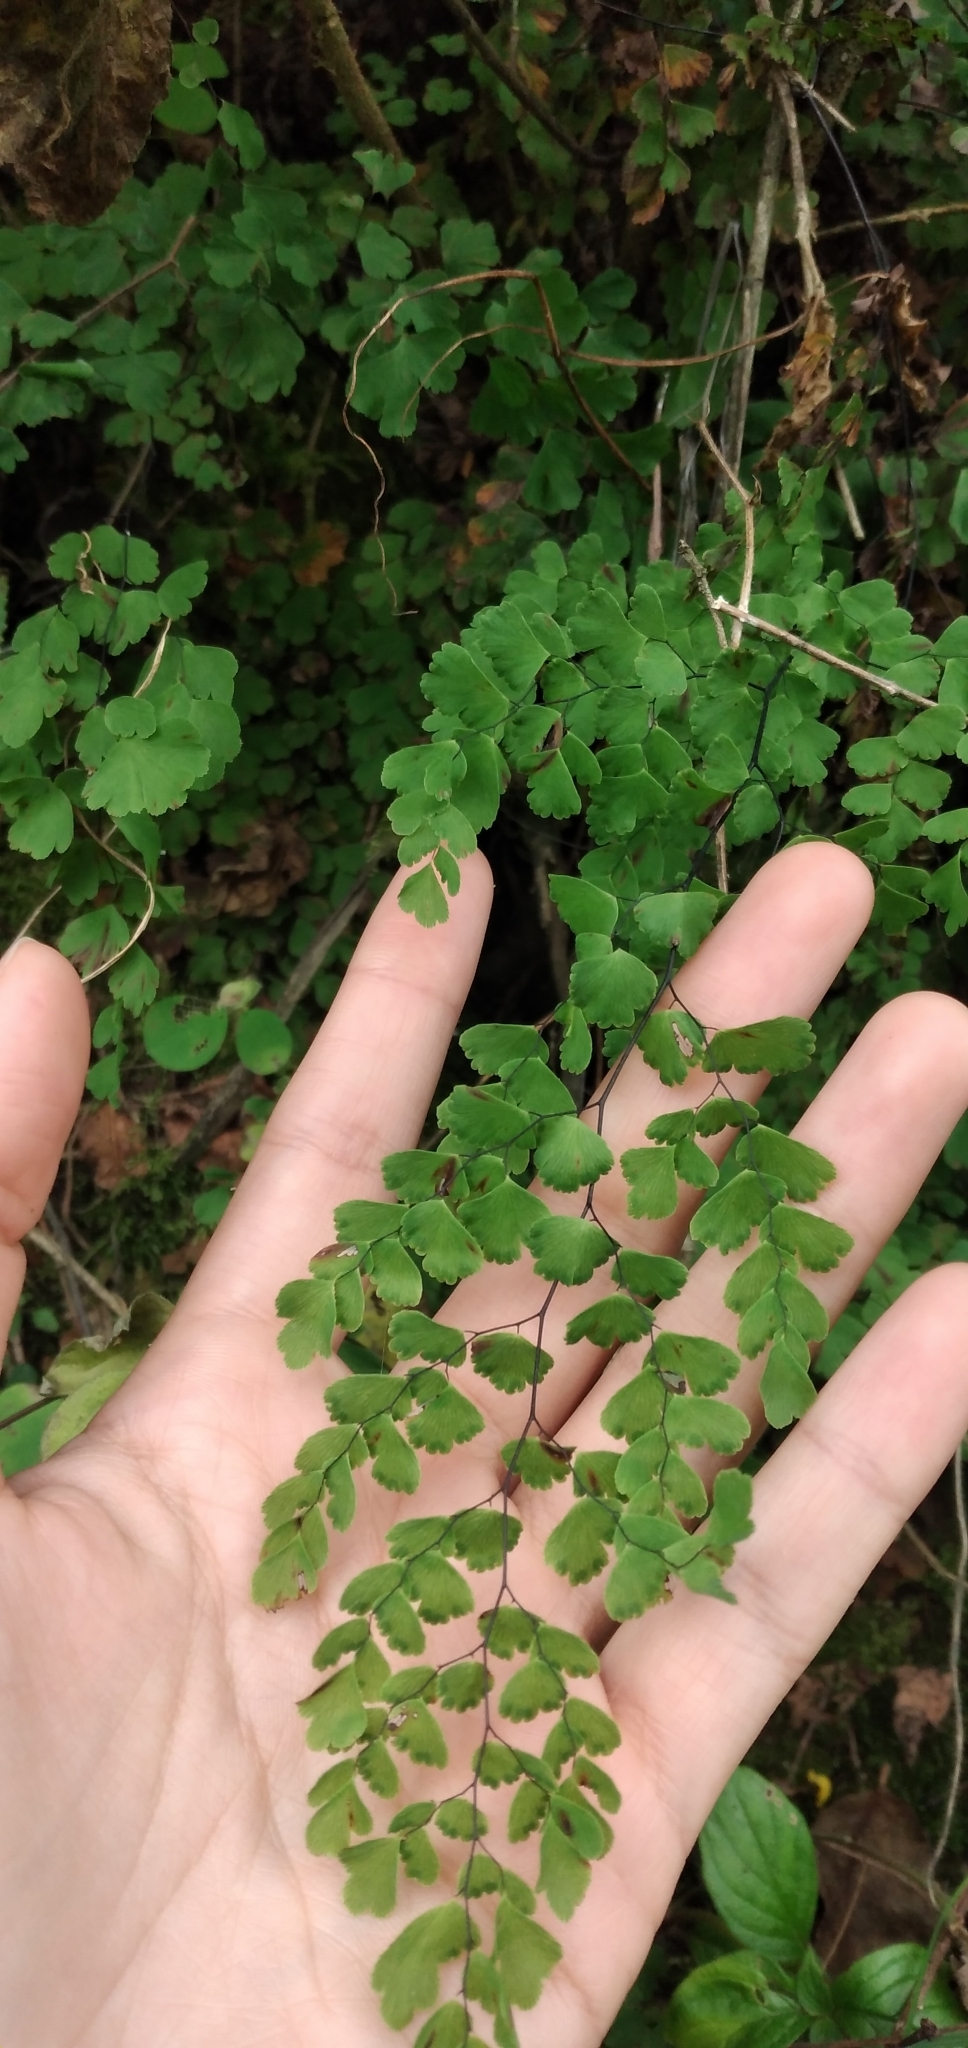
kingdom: Plantae
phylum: Tracheophyta
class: Polypodiopsida
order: Polypodiales
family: Pteridaceae
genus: Adiantum
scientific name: Adiantum lorentzii
